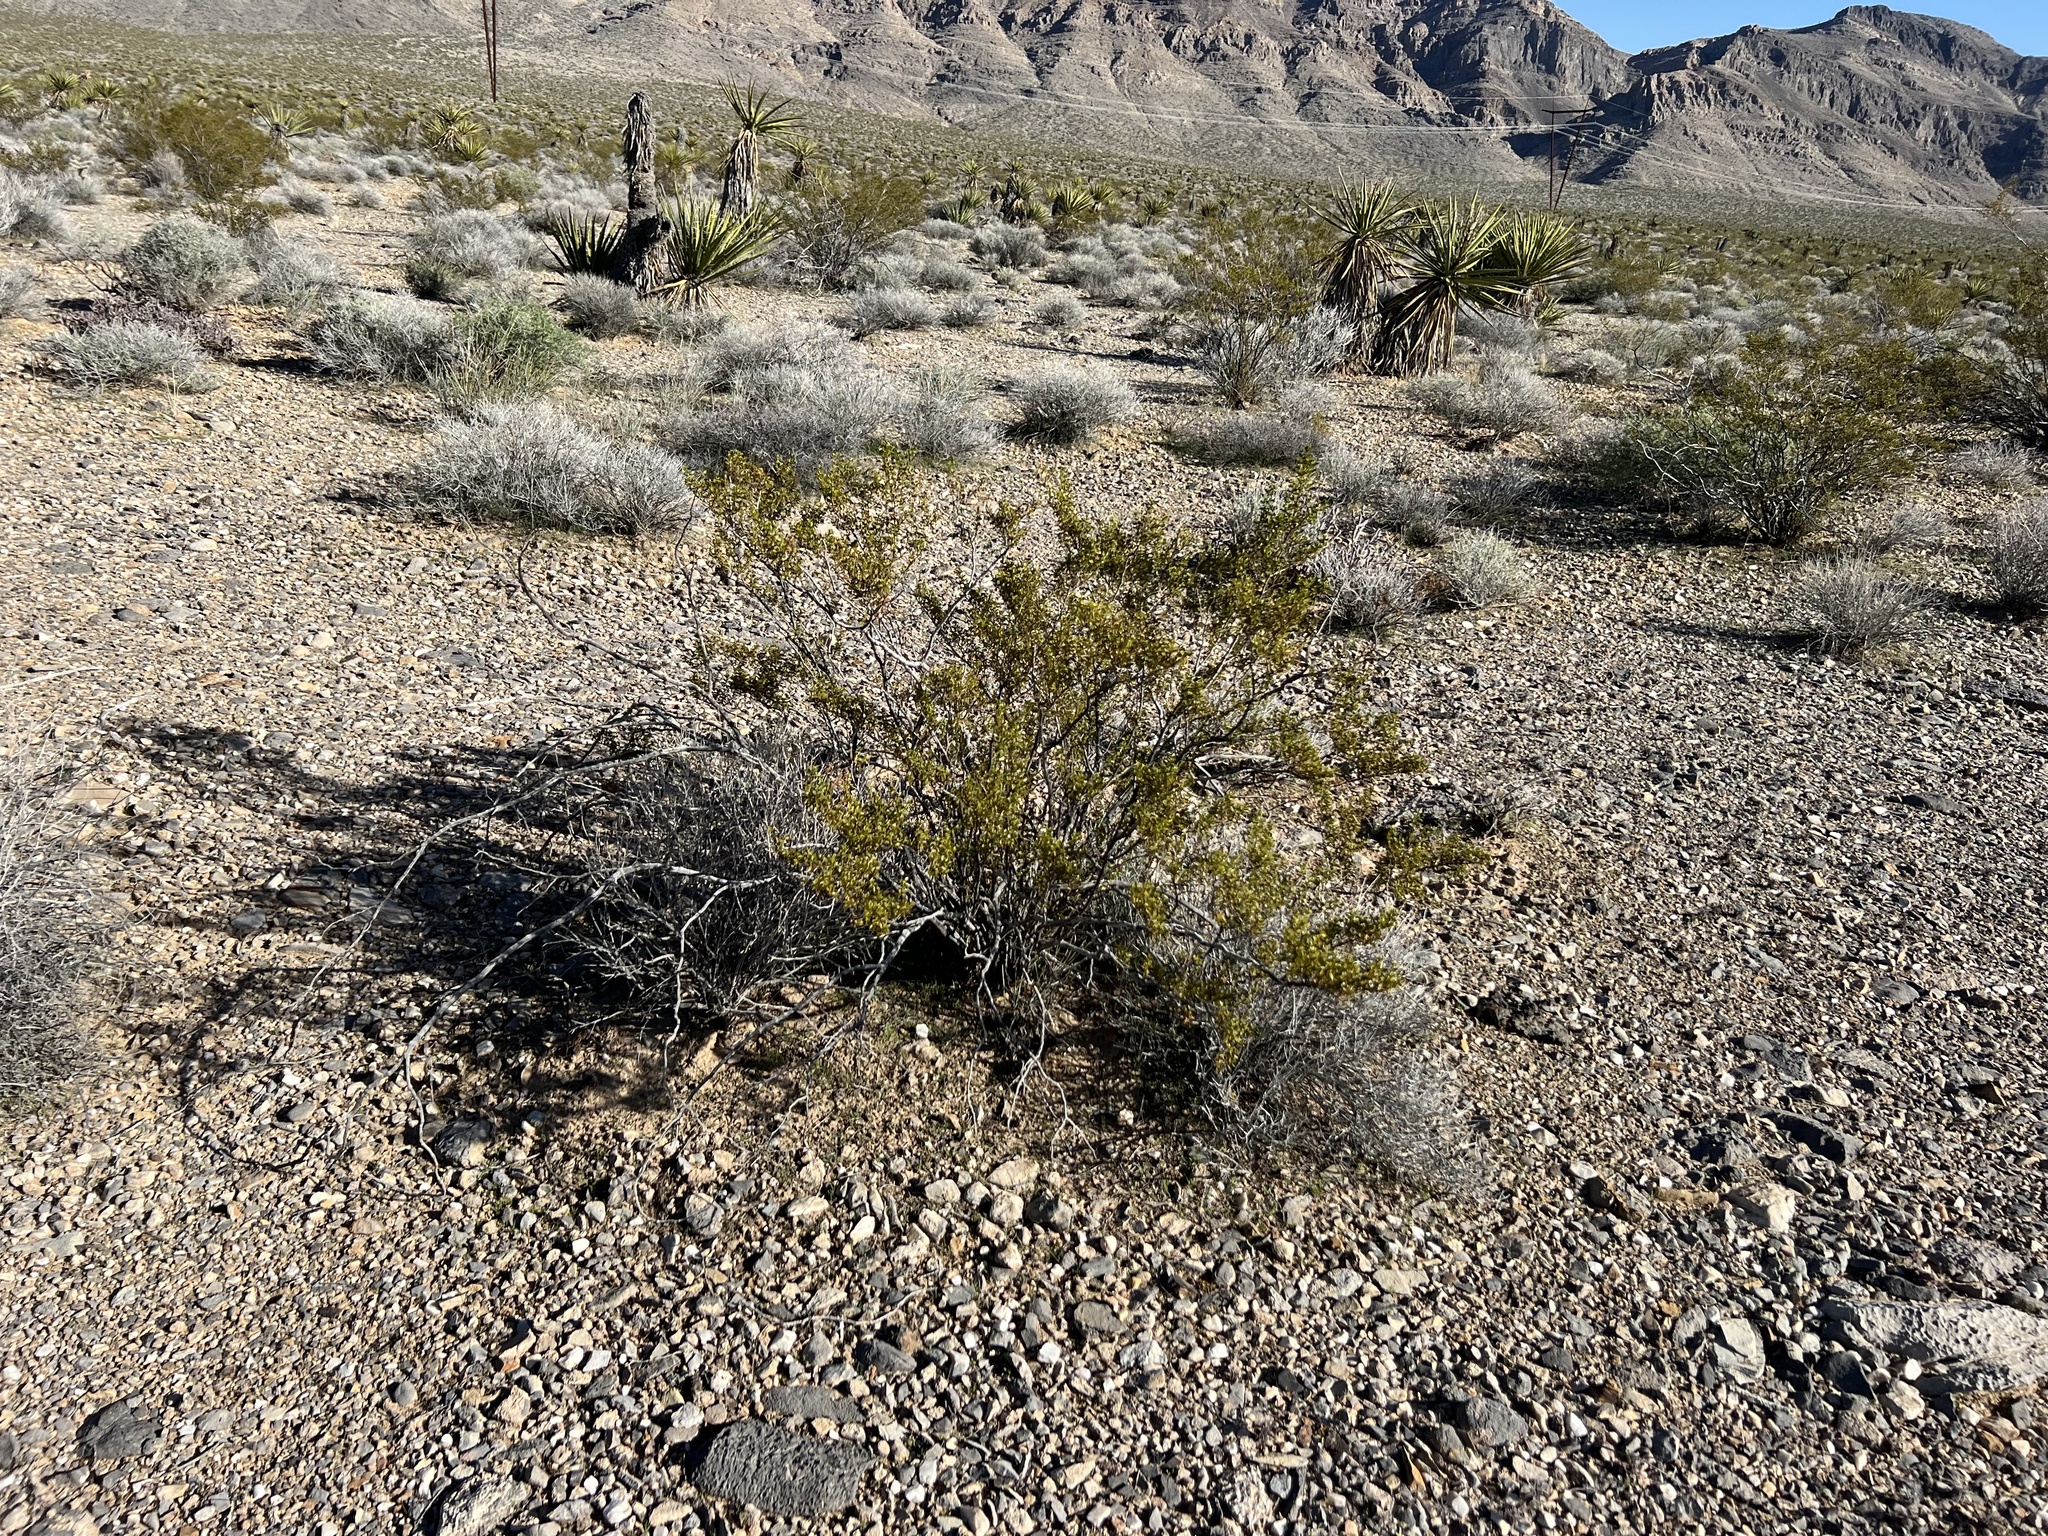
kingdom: Plantae
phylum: Tracheophyta
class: Magnoliopsida
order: Zygophyllales
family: Zygophyllaceae
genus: Larrea
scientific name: Larrea tridentata
